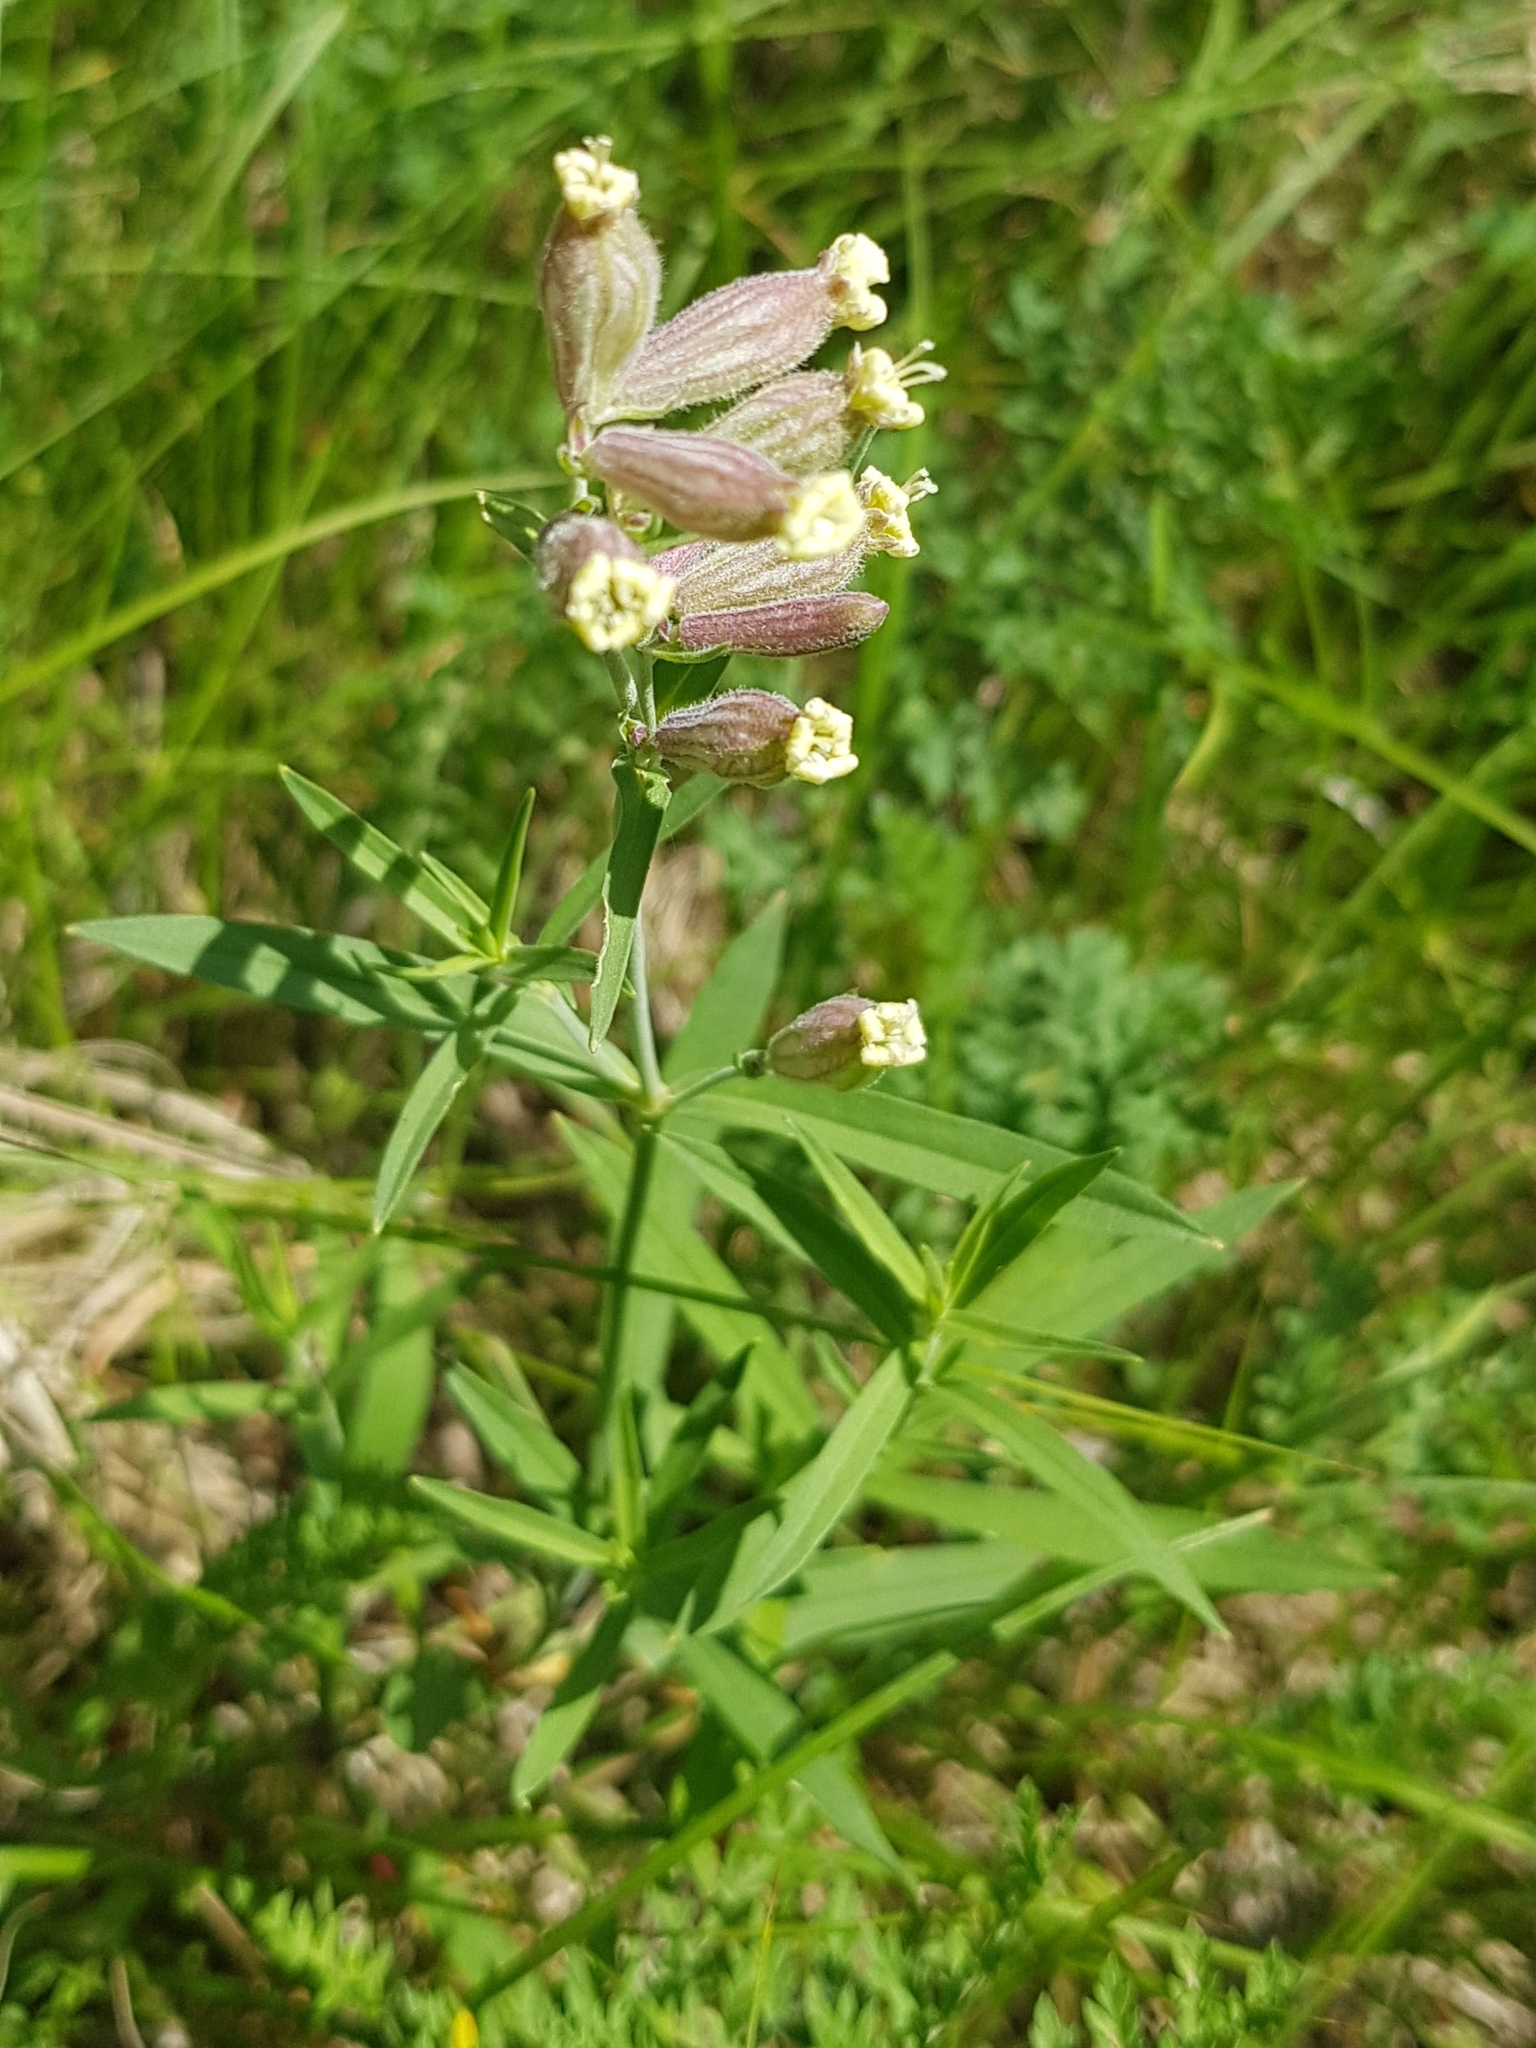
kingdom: Plantae
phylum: Tracheophyta
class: Magnoliopsida
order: Caryophyllales
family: Caryophyllaceae
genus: Silene
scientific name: Silene amoena
